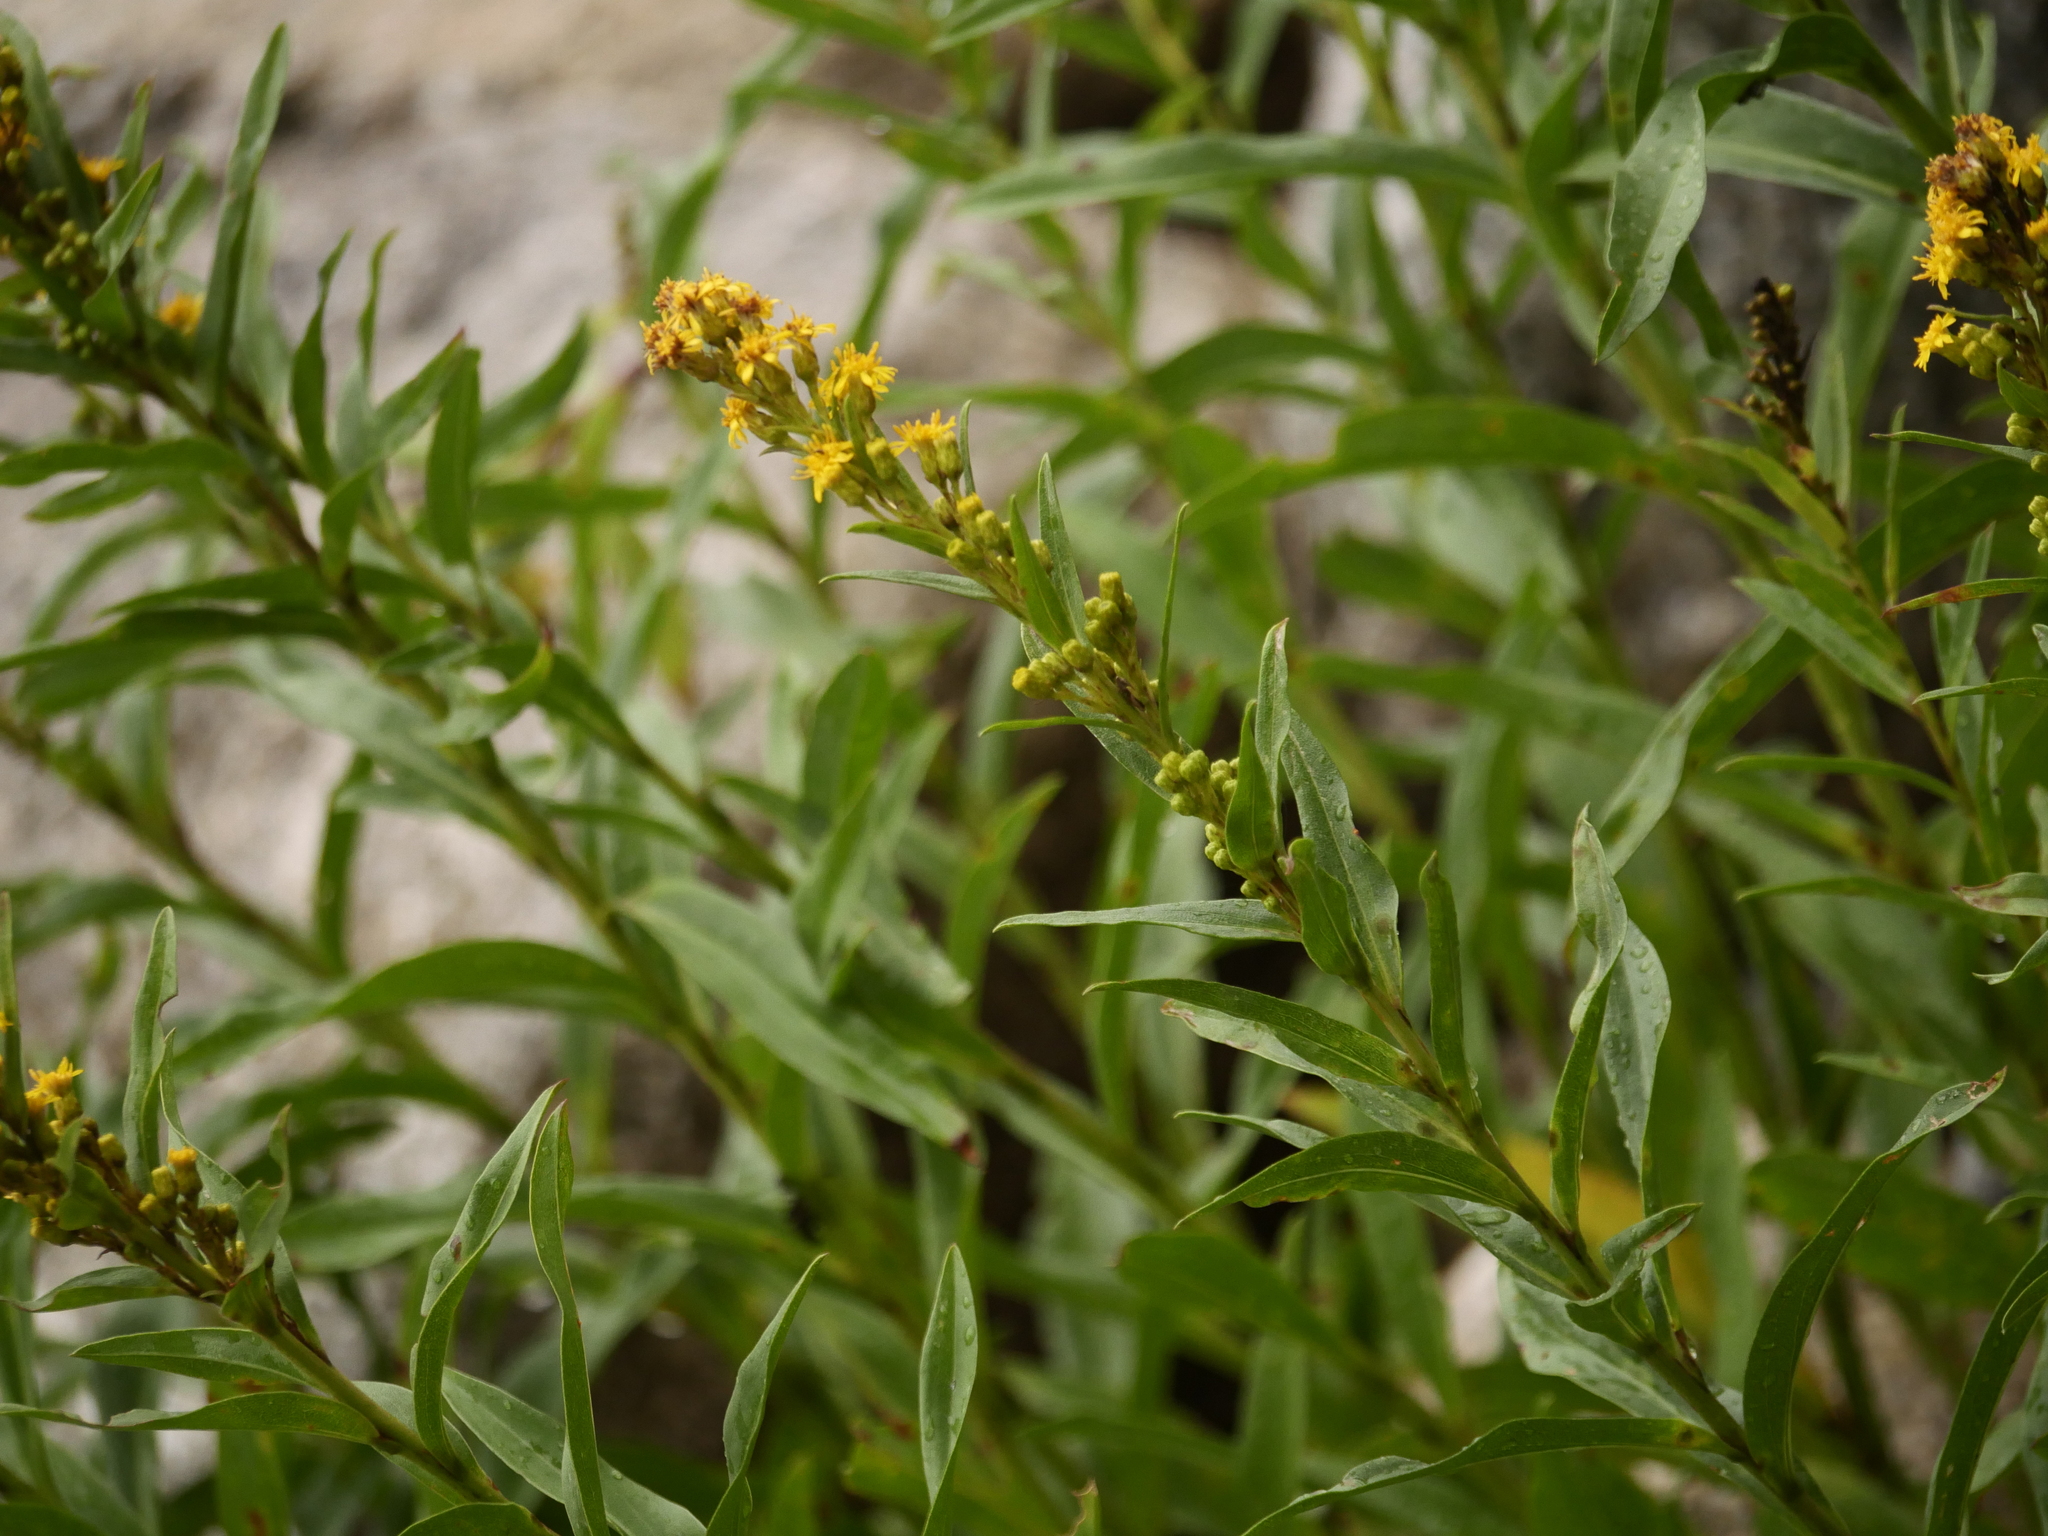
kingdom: Plantae
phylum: Tracheophyta
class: Magnoliopsida
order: Asterales
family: Asteraceae
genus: Solidago
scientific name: Solidago sempervirens
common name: Salt-marsh goldenrod
